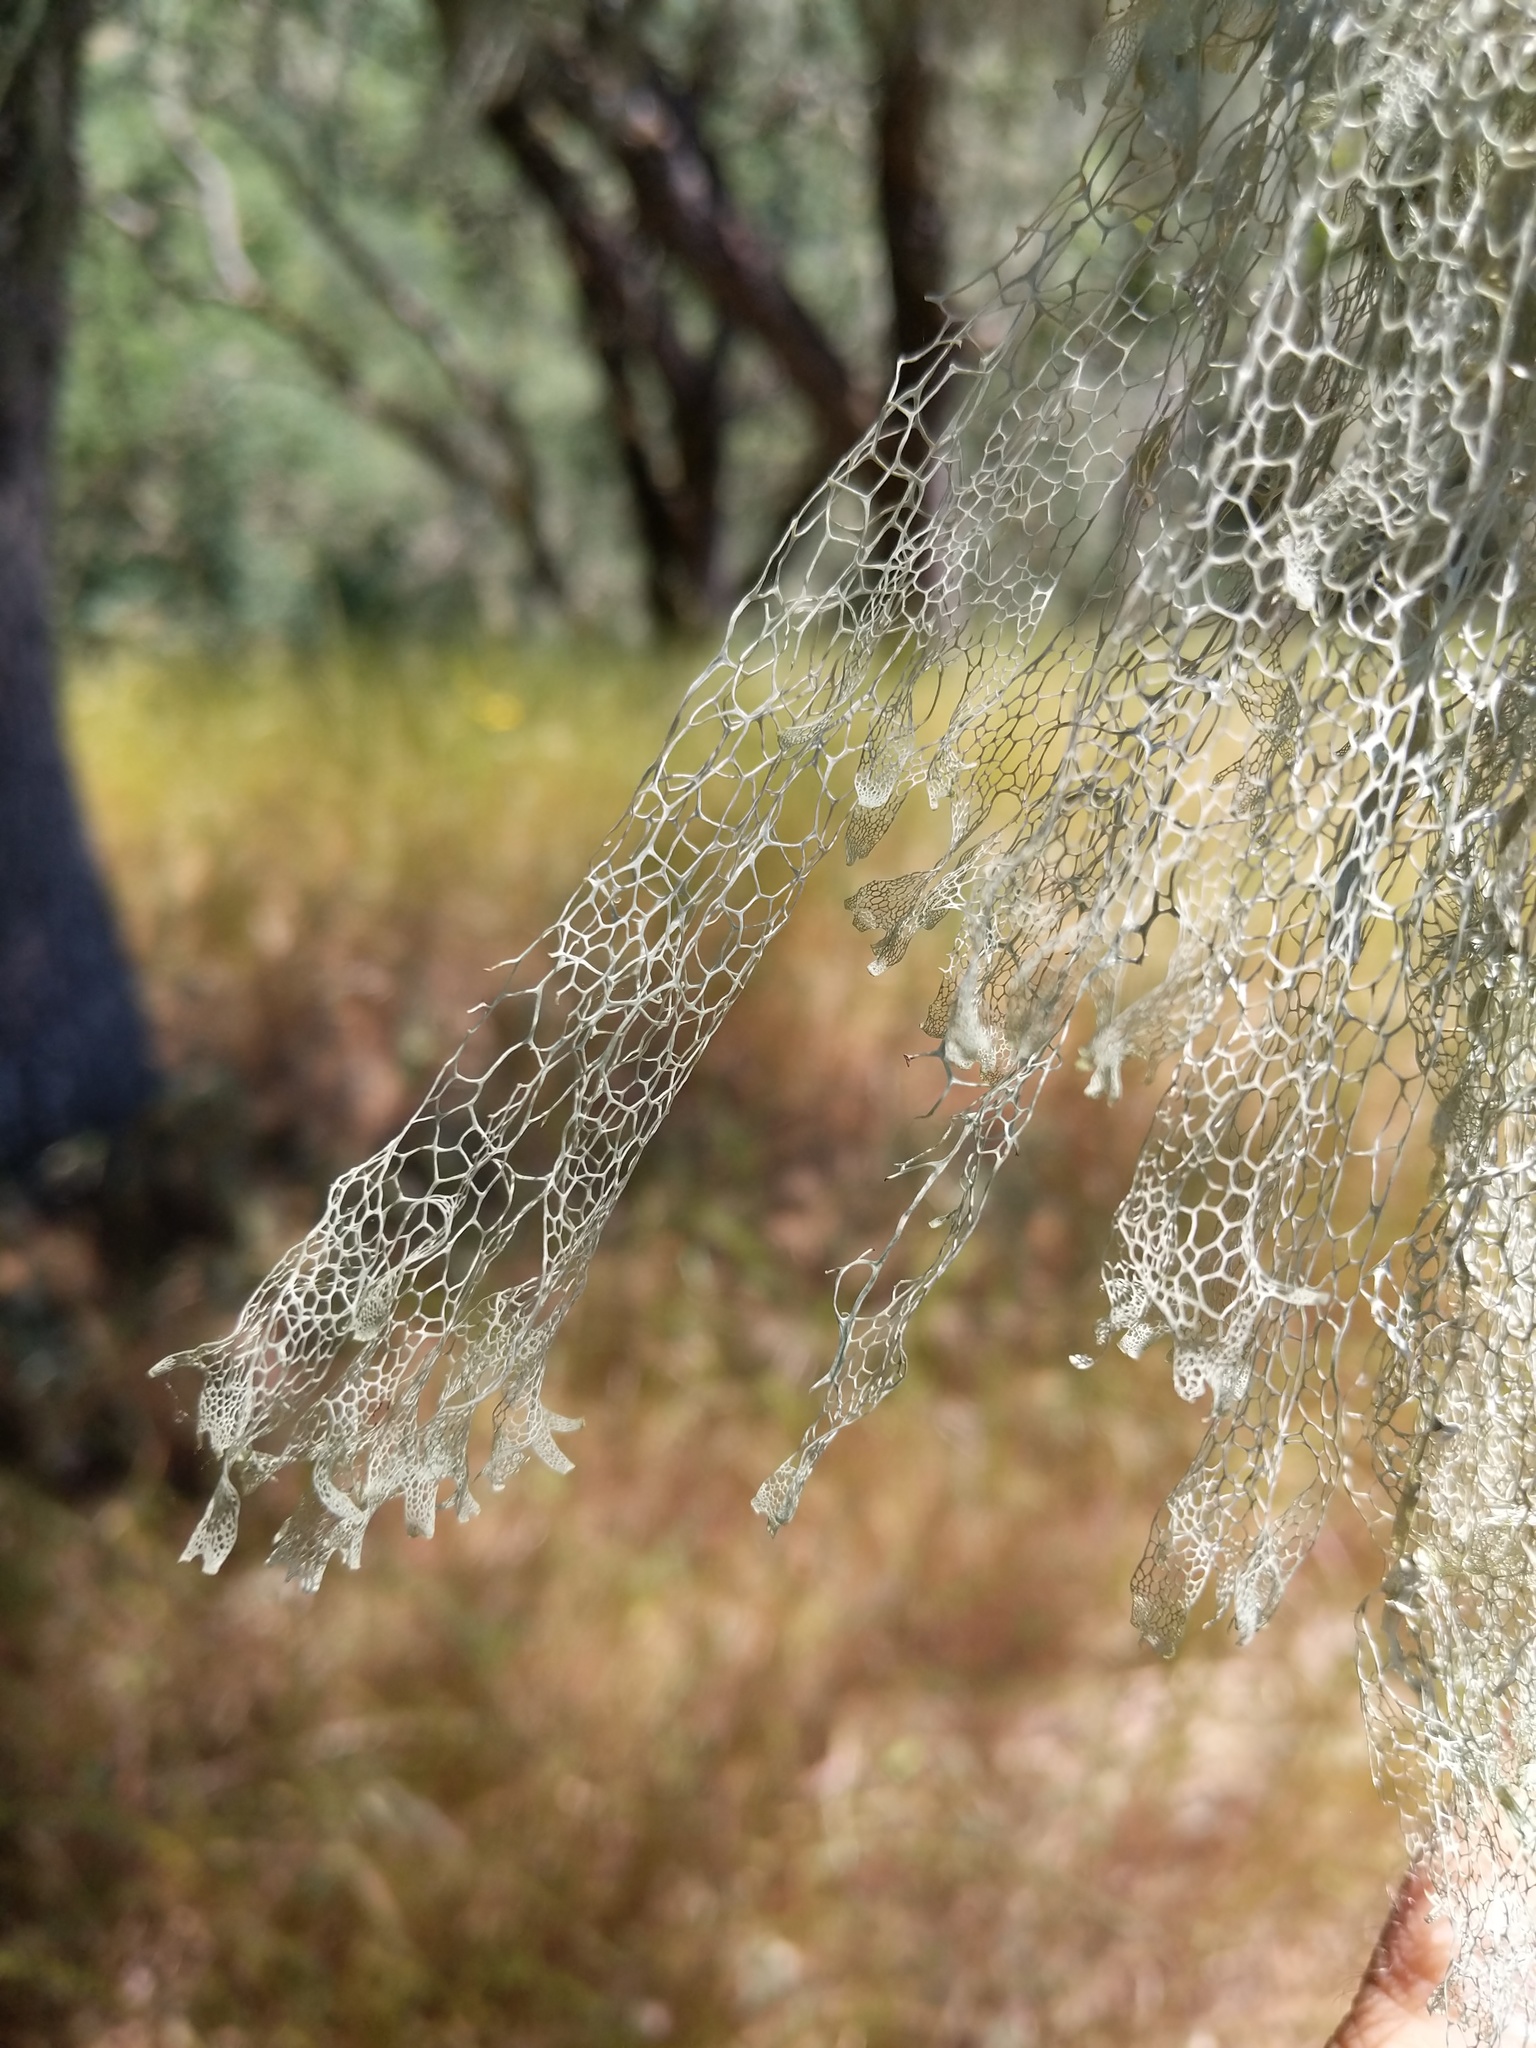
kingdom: Fungi
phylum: Ascomycota
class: Lecanoromycetes
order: Lecanorales
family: Ramalinaceae
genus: Ramalina
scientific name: Ramalina menziesii
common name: Lace lichen
